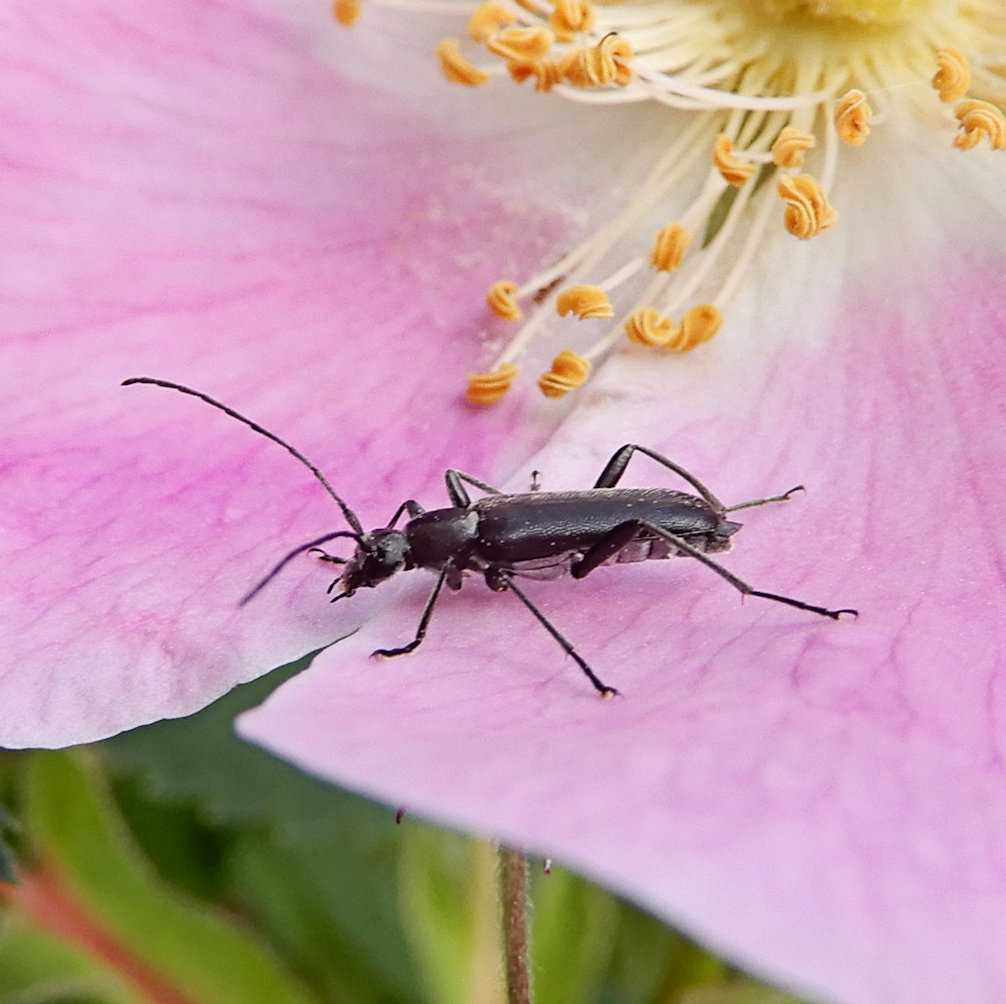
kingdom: Animalia
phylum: Arthropoda
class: Insecta
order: Coleoptera
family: Cerambycidae
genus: Grammoptera
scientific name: Grammoptera subargentata
